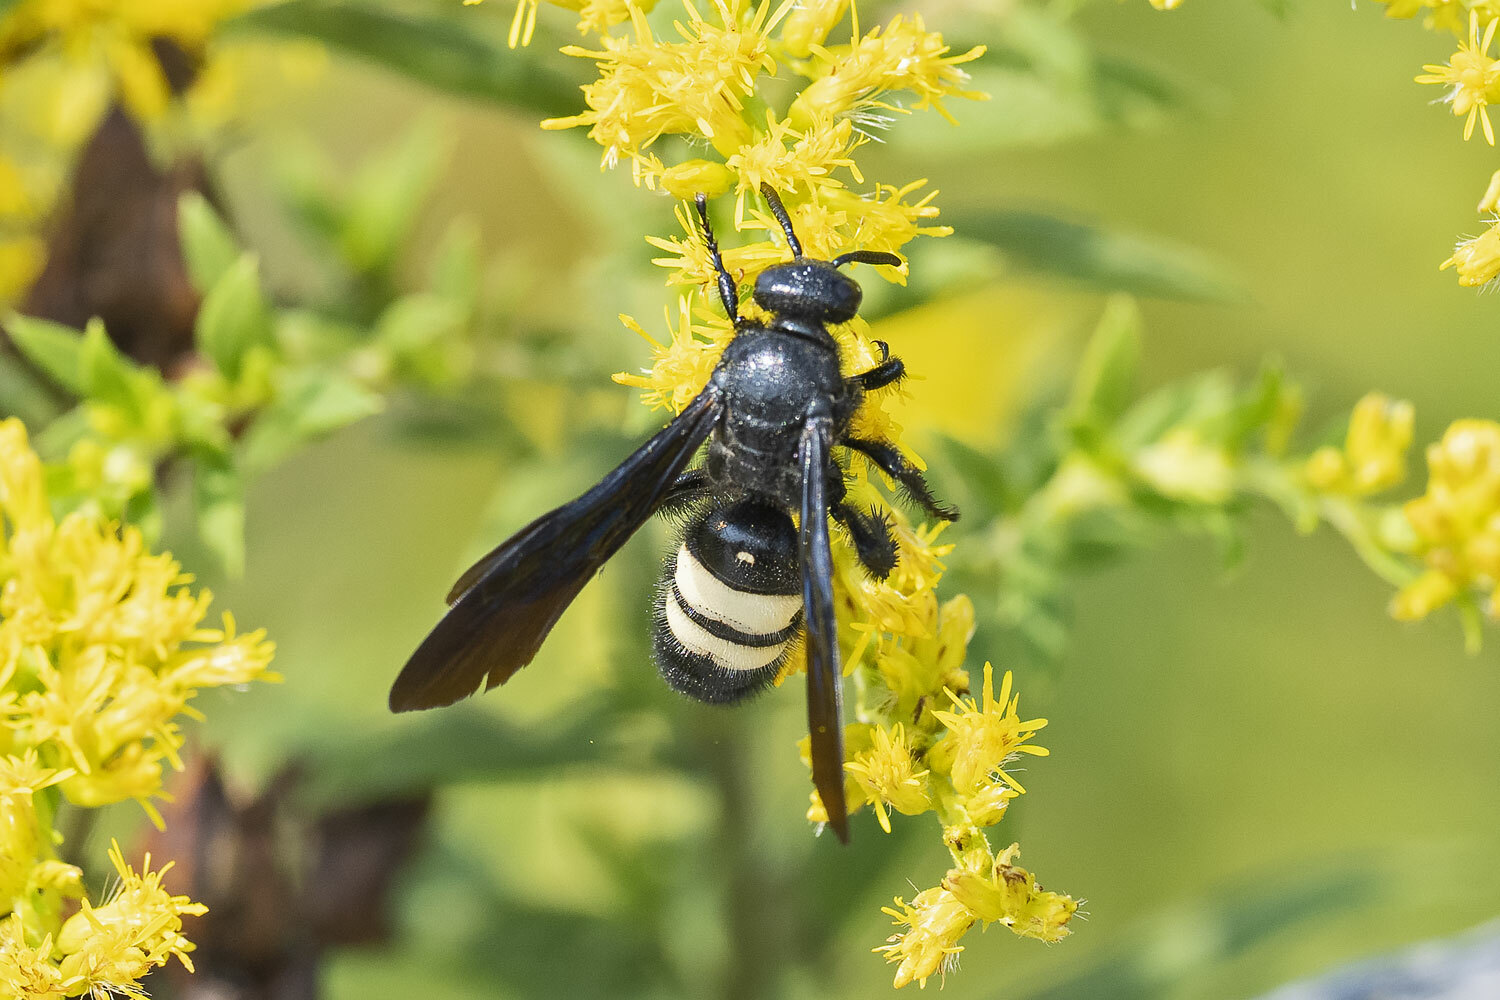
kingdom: Animalia
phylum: Arthropoda
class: Insecta
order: Hymenoptera
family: Scoliidae
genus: Scolia
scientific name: Scolia bicincta
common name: Double-banded scoliid wasp
